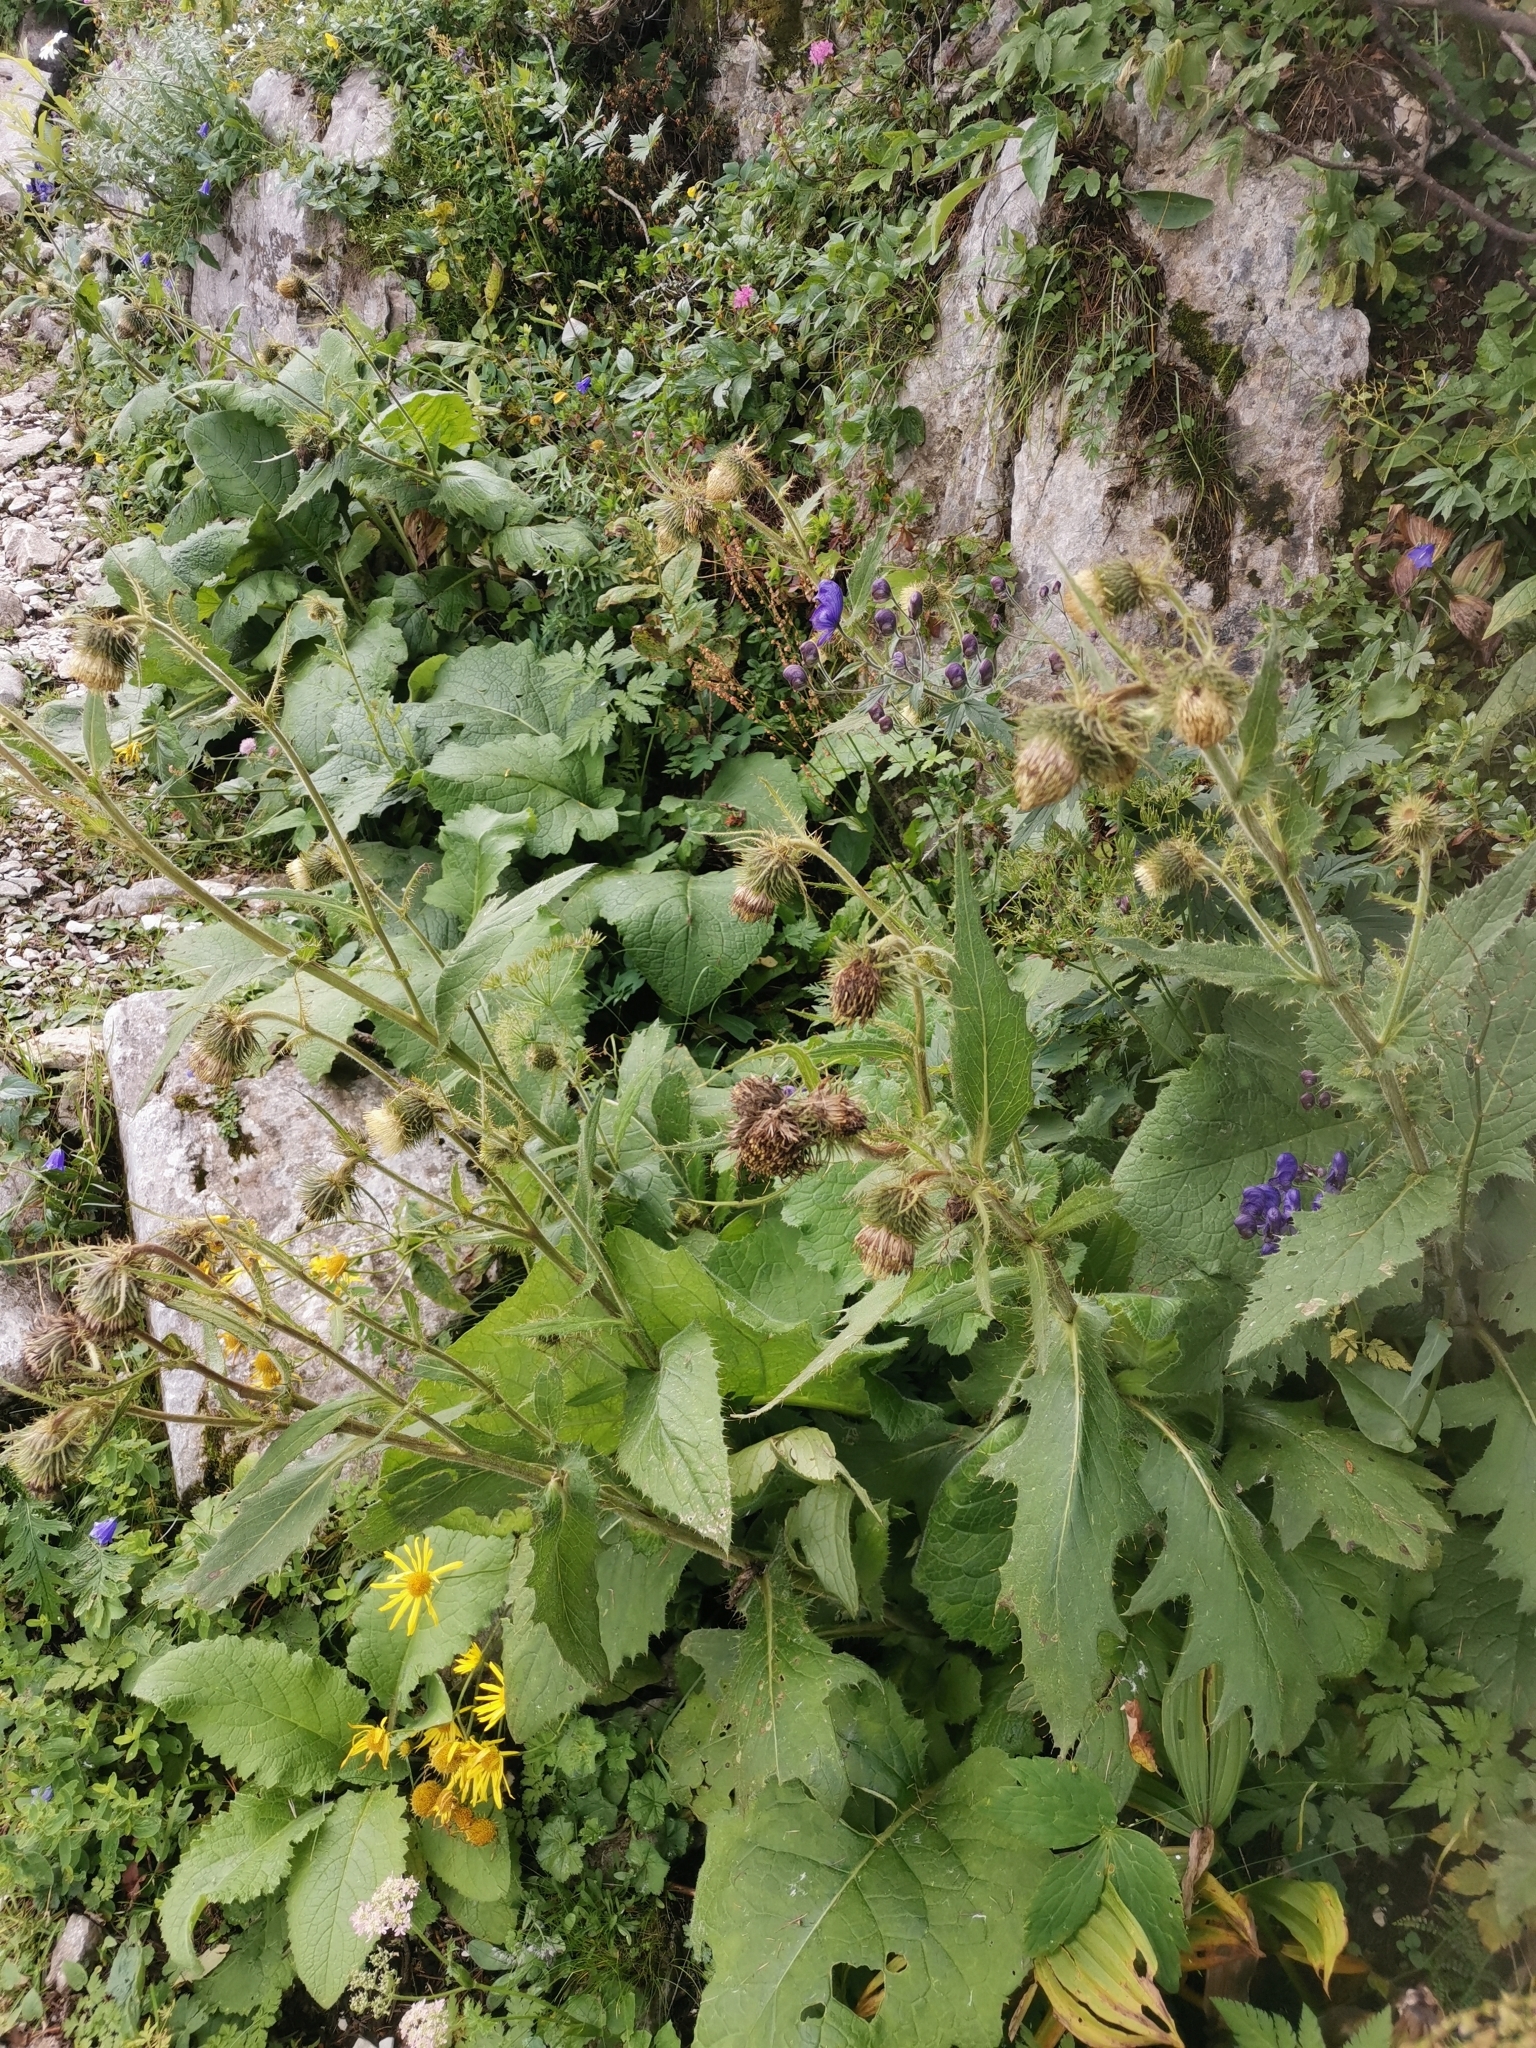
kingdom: Plantae
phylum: Tracheophyta
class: Magnoliopsida
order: Asterales
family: Asteraceae
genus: Cirsium
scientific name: Cirsium carniolicum
